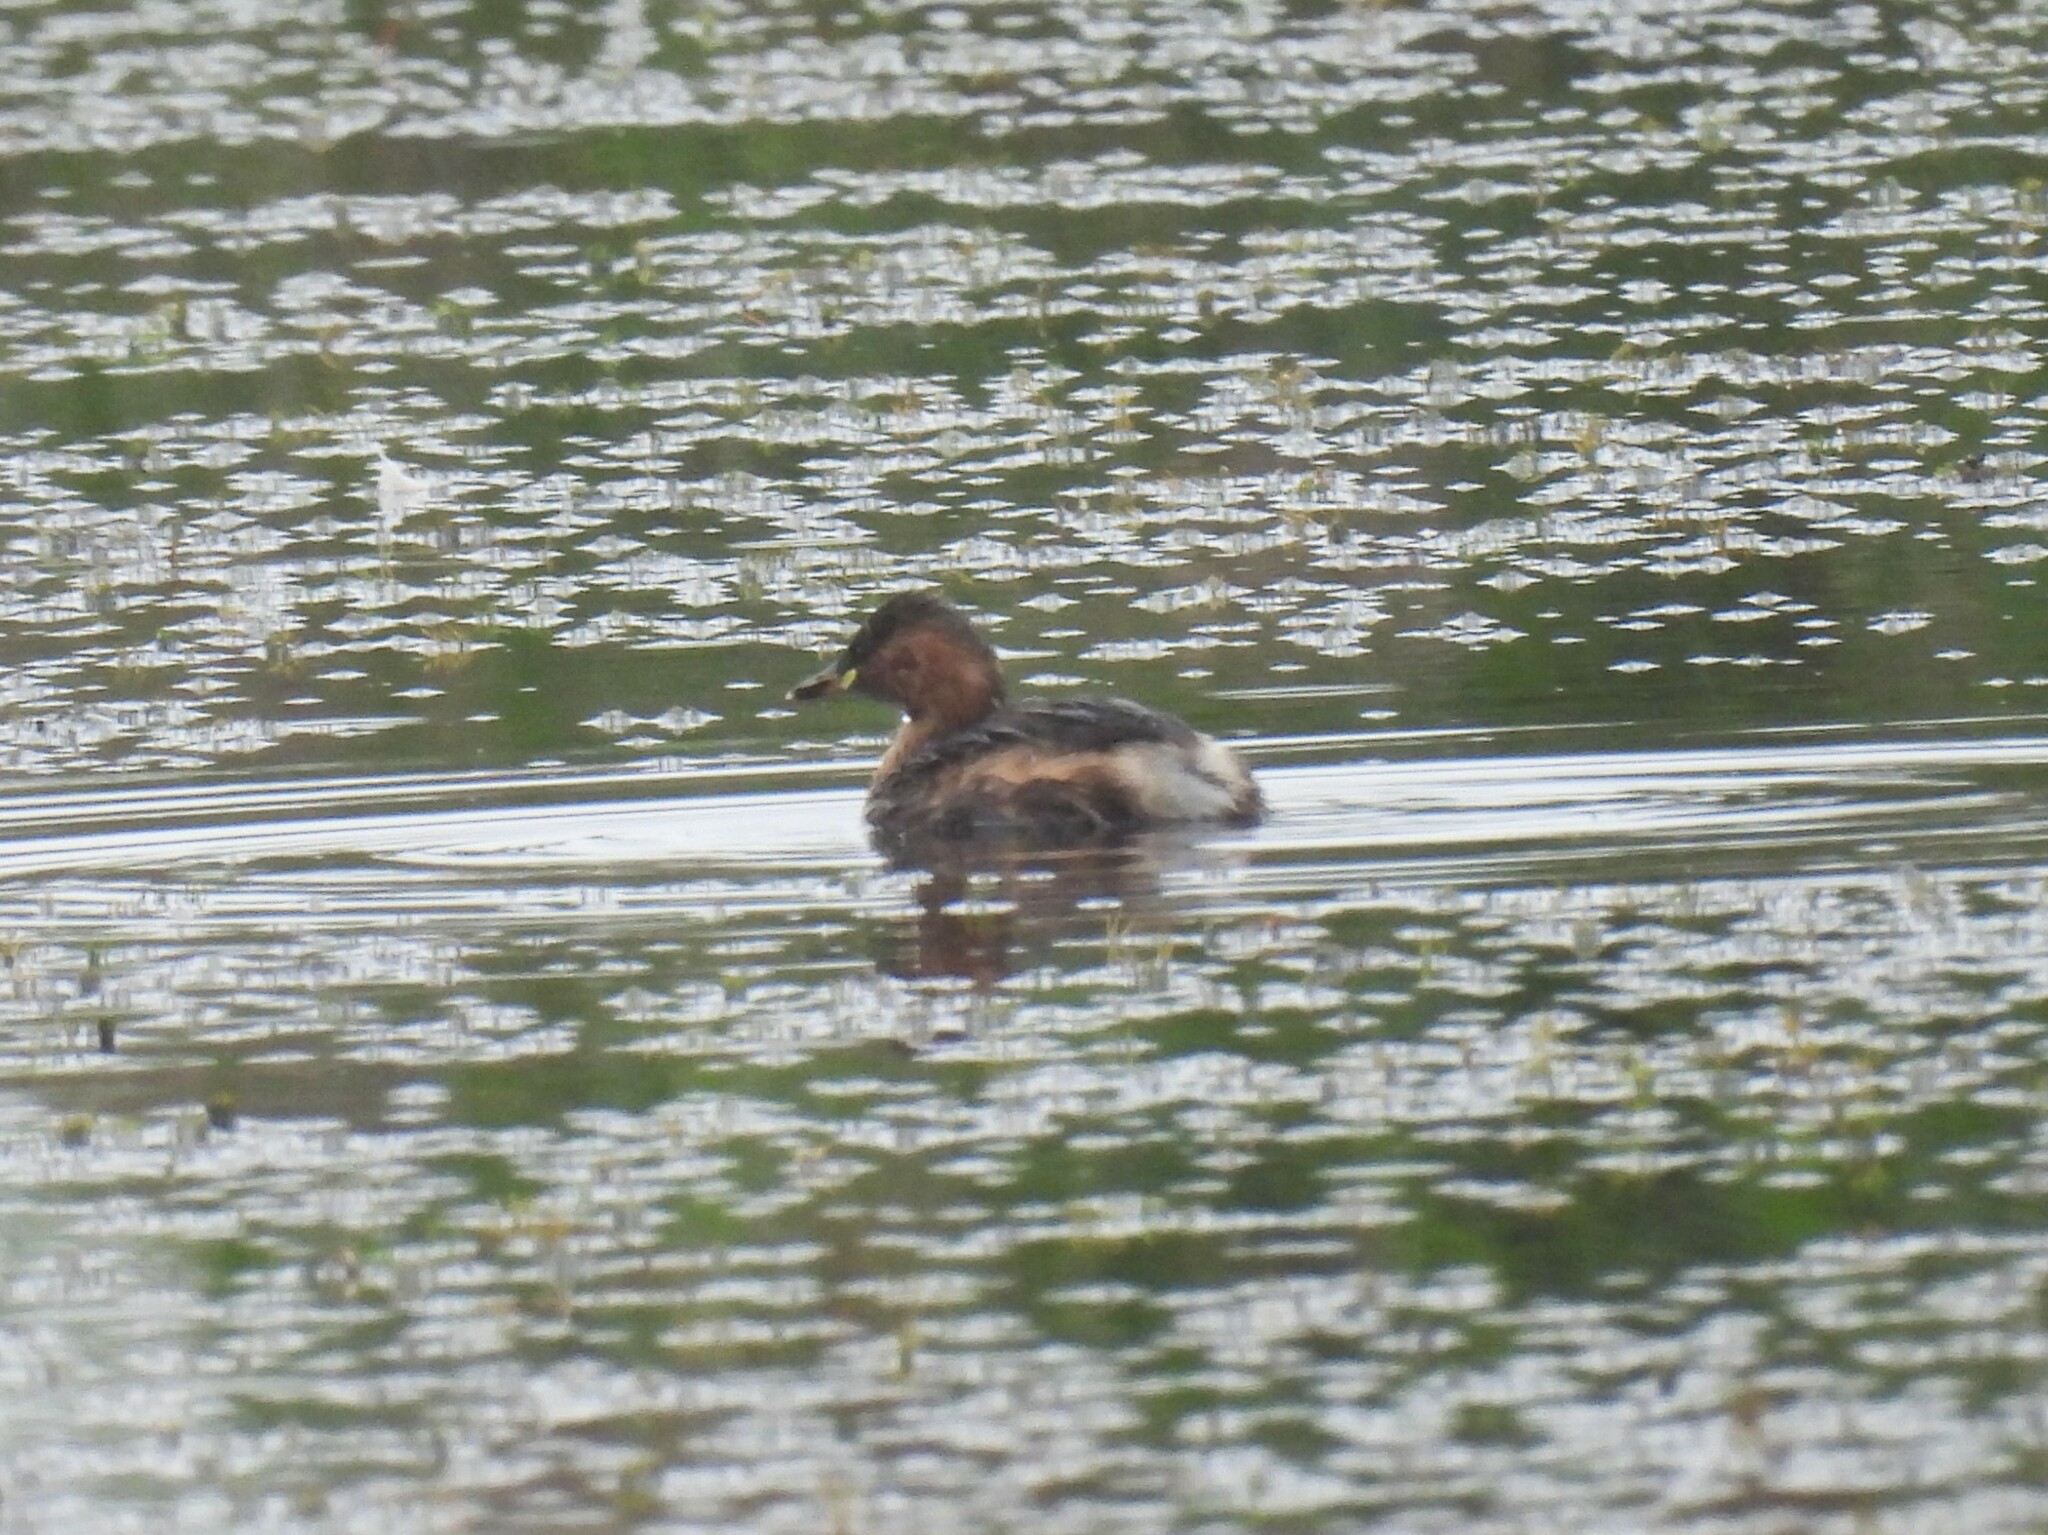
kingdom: Animalia
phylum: Chordata
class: Aves
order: Podicipediformes
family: Podicipedidae
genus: Tachybaptus
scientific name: Tachybaptus ruficollis
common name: Little grebe
